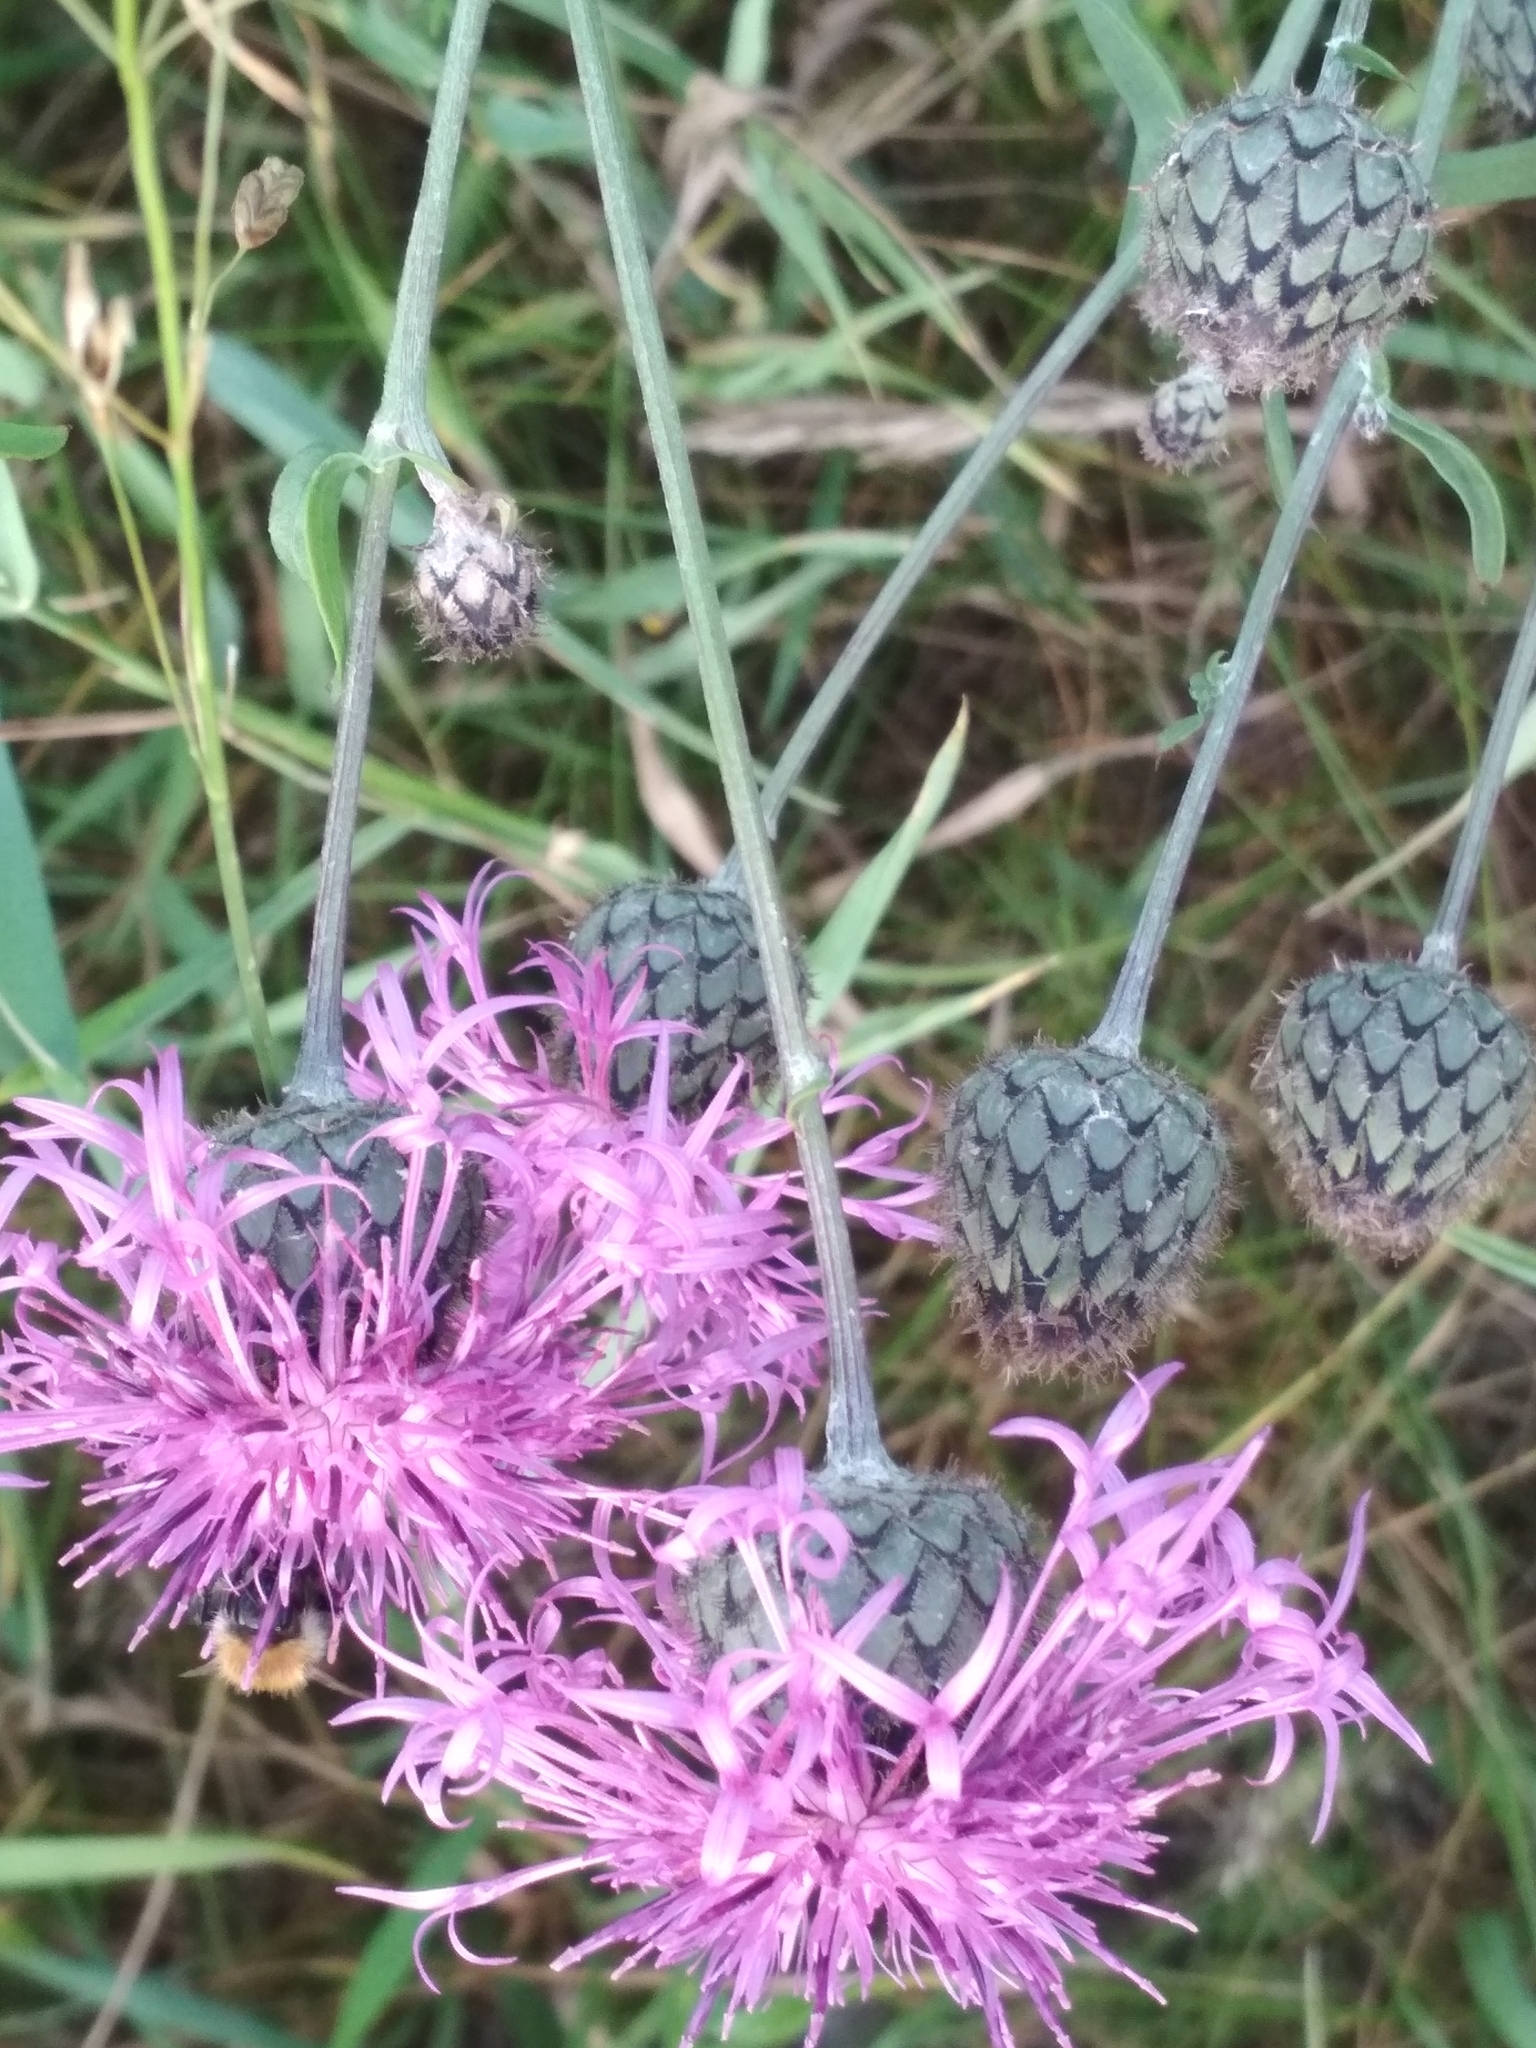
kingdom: Plantae
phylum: Tracheophyta
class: Magnoliopsida
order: Asterales
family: Asteraceae
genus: Centaurea
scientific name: Centaurea scabiosa
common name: Greater knapweed
